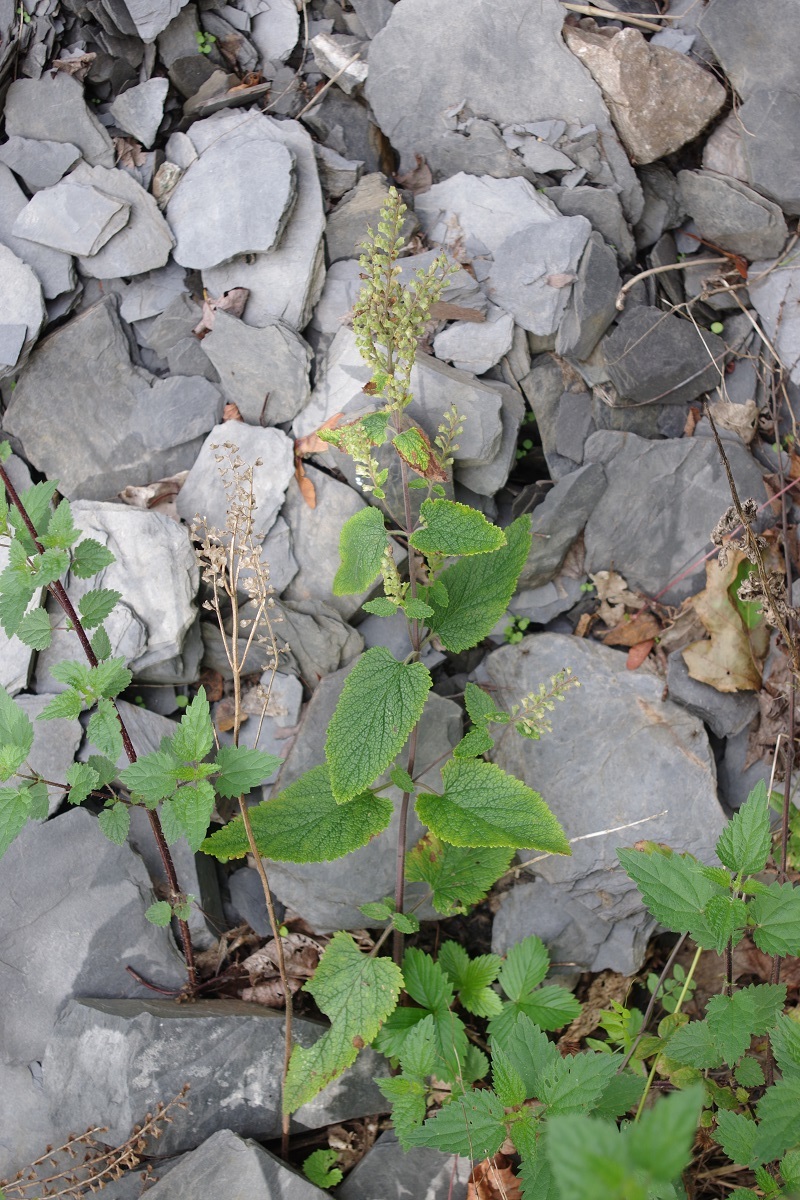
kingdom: Plantae
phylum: Tracheophyta
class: Magnoliopsida
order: Lamiales
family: Lamiaceae
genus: Teucrium
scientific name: Teucrium scorodonia
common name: Woodland germander
